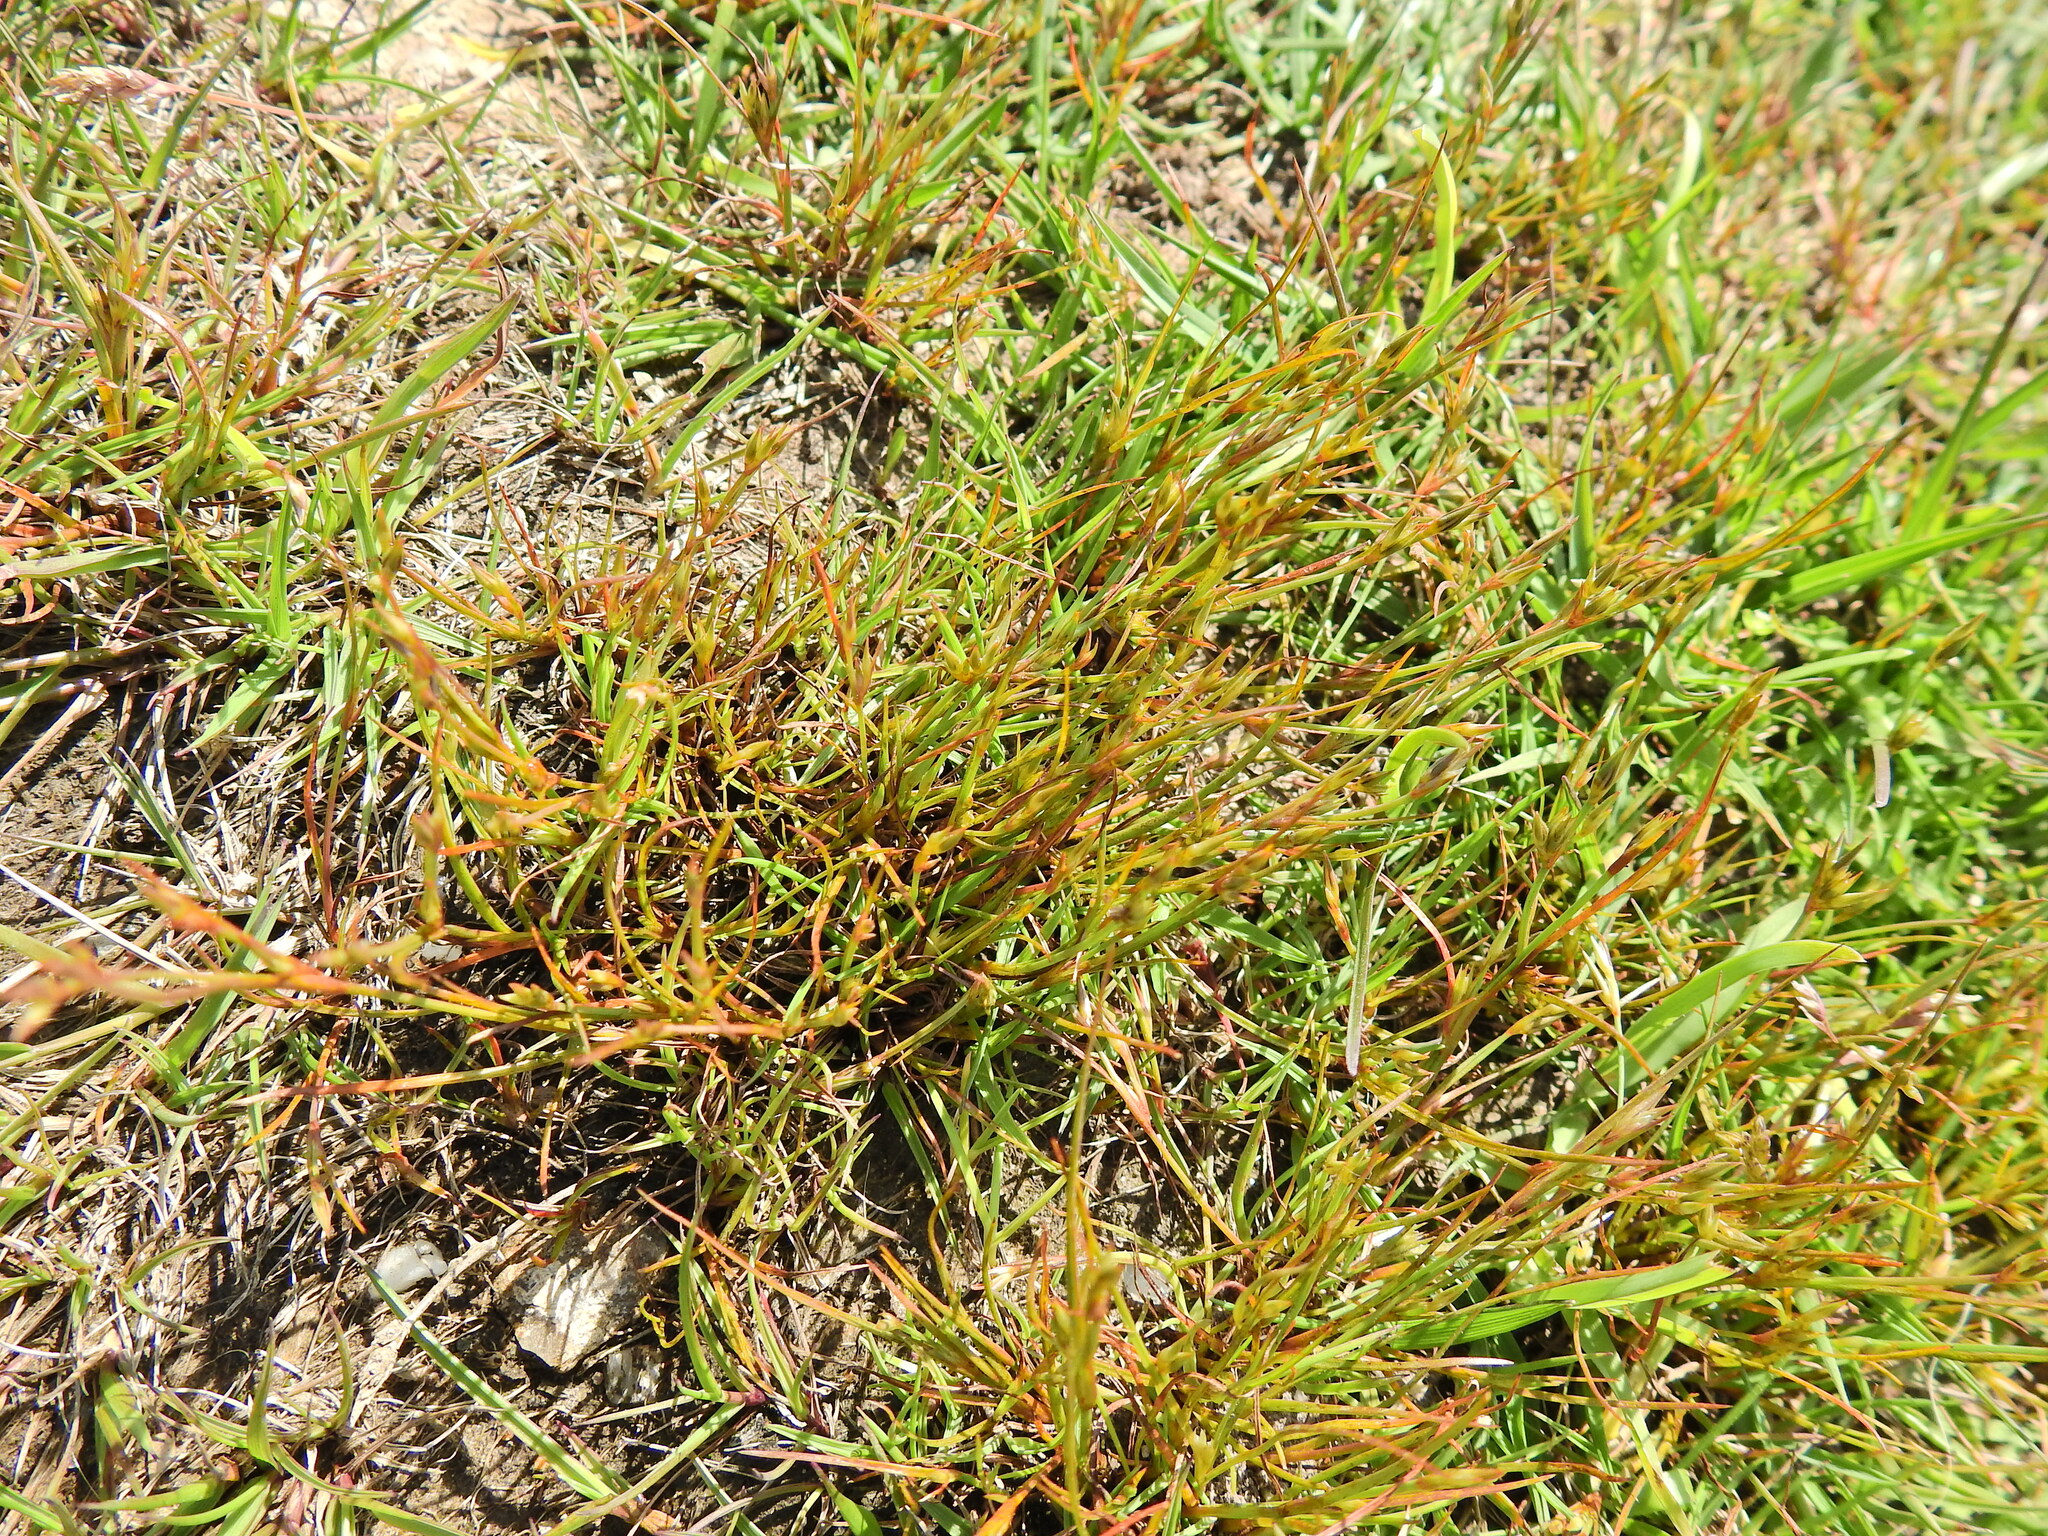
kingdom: Plantae
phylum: Tracheophyta
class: Liliopsida
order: Poales
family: Juncaceae
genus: Juncus
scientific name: Juncus bufonius
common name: Toad rush
